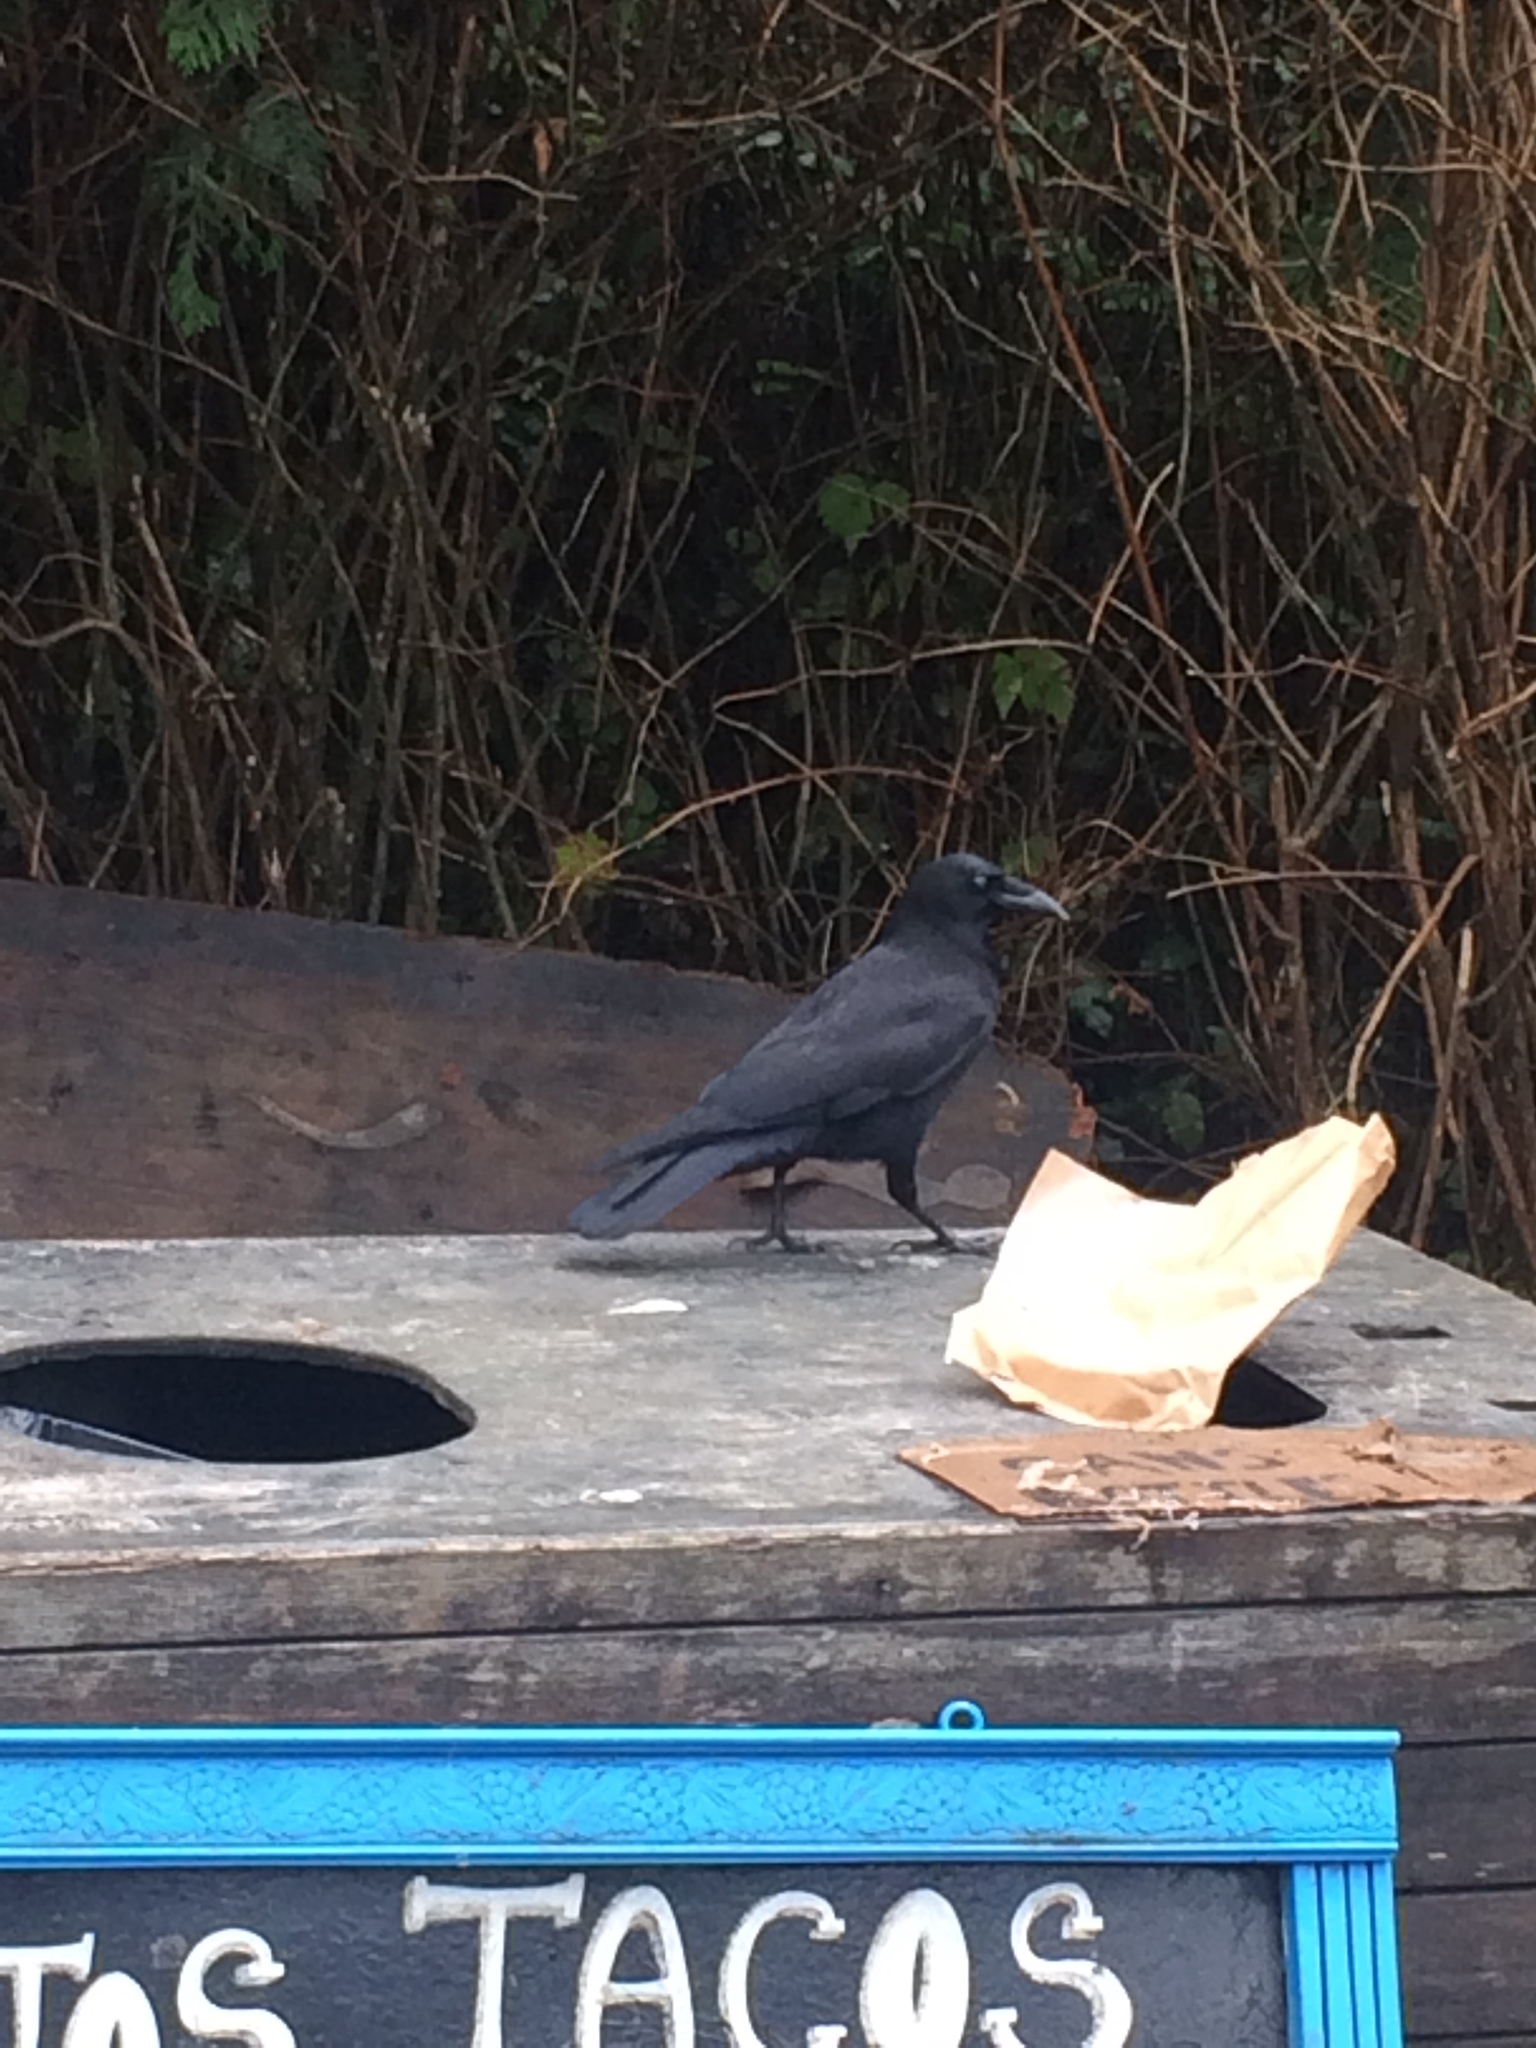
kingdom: Animalia
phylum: Chordata
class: Aves
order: Passeriformes
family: Corvidae
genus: Corvus
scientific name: Corvus brachyrhynchos
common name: American crow
